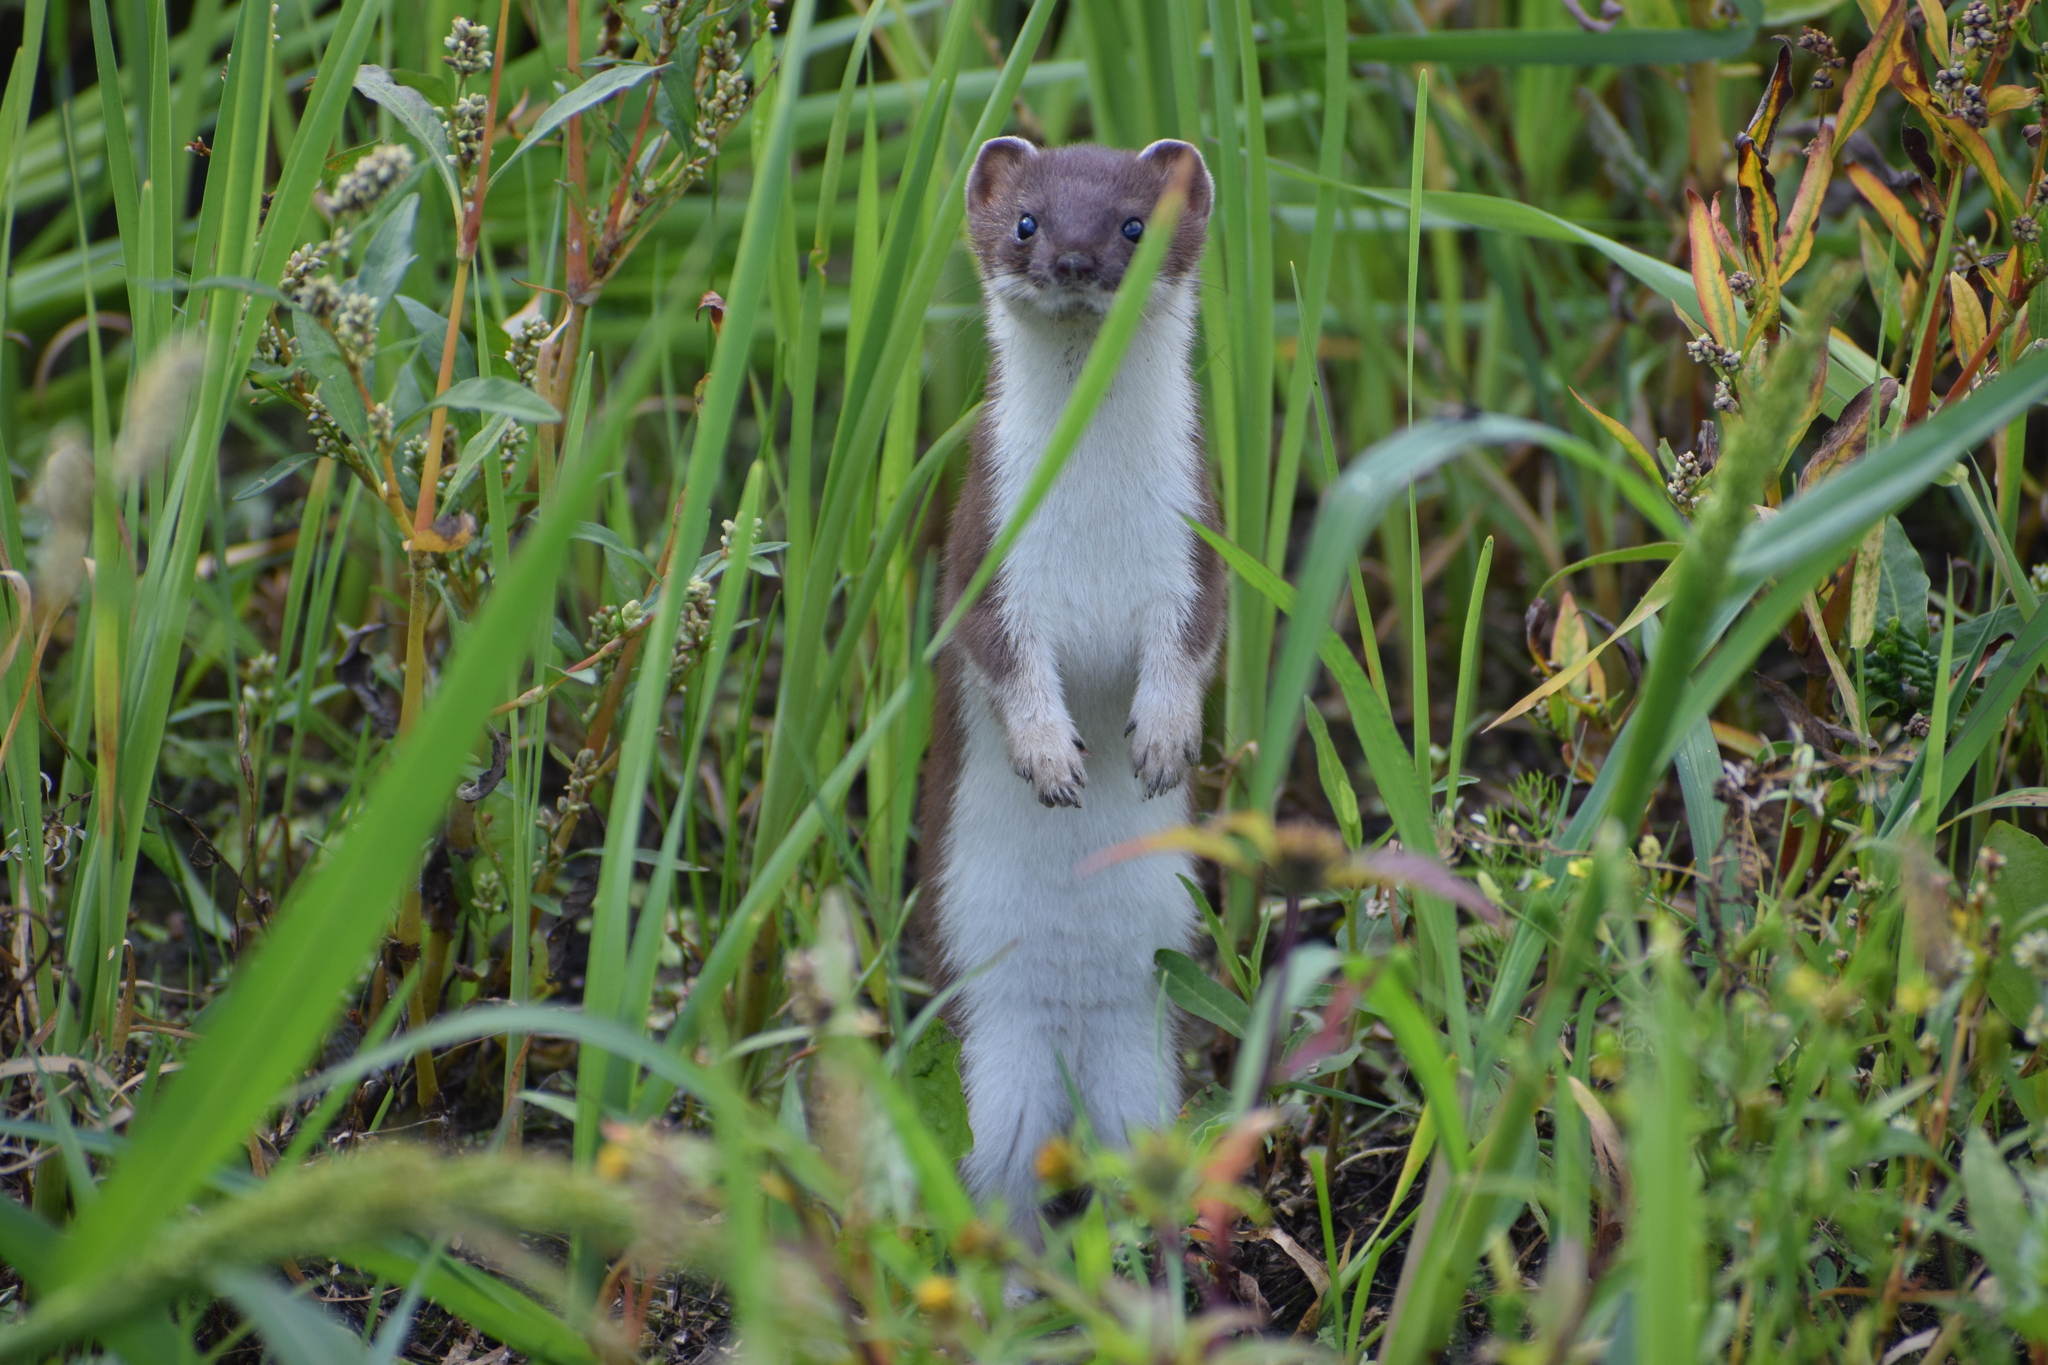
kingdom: Animalia
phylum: Chordata
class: Mammalia
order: Carnivora
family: Mustelidae
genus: Mustela
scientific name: Mustela nivalis
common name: Least weasel
